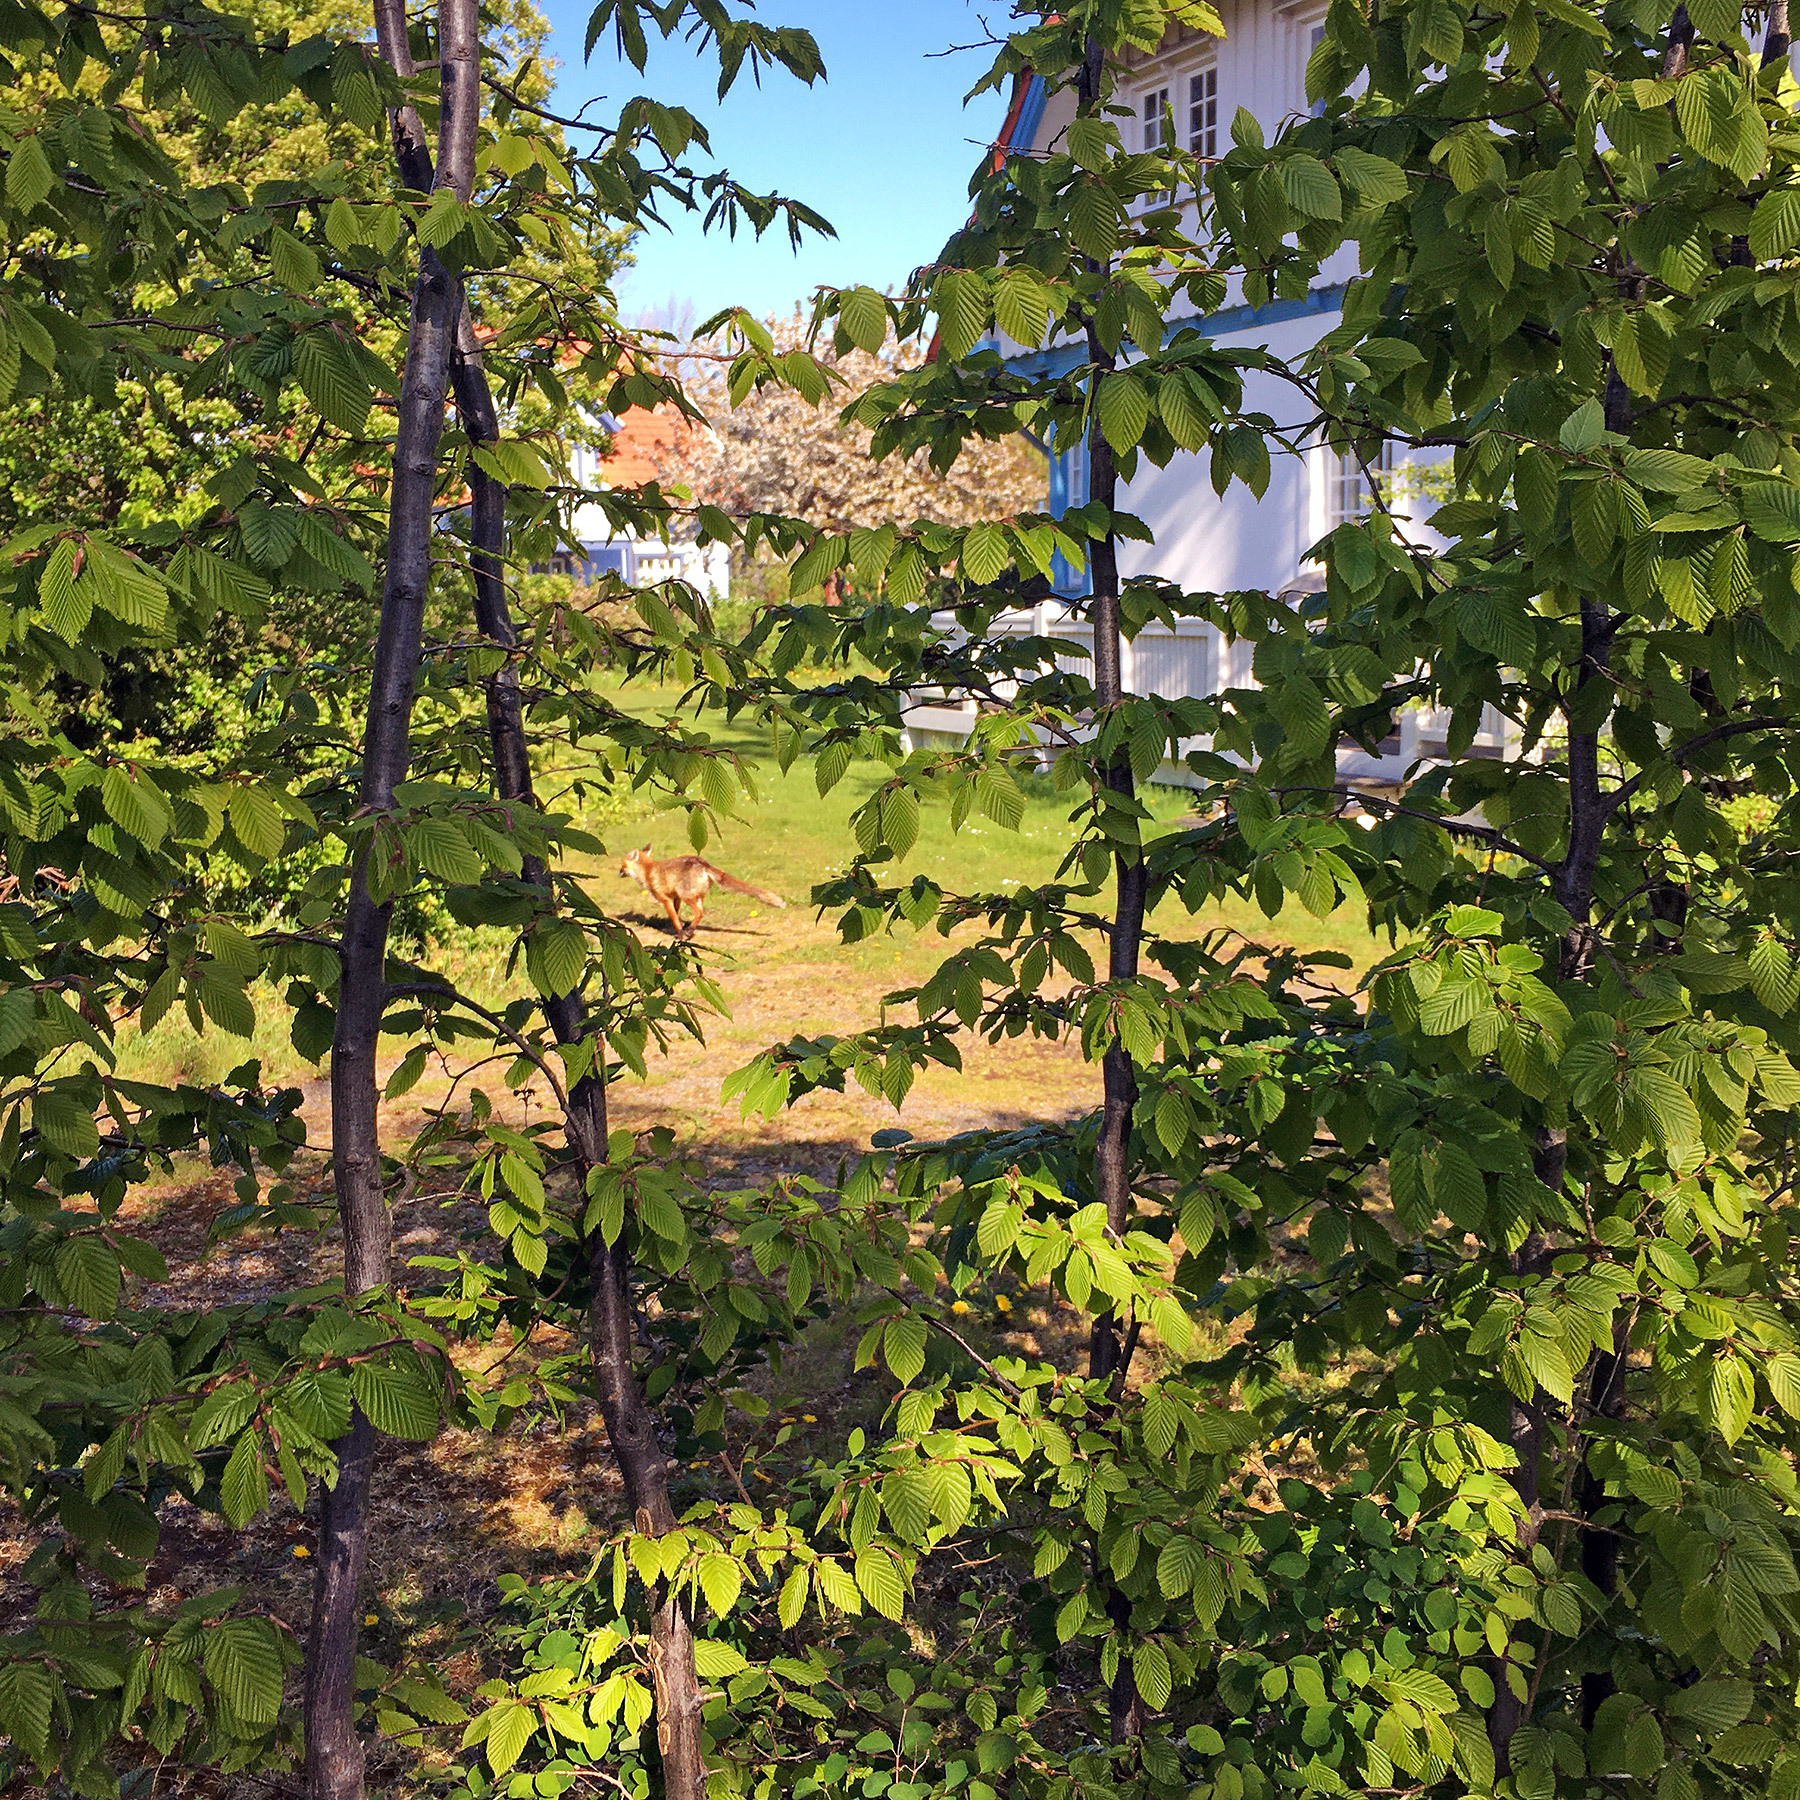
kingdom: Animalia
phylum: Chordata
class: Mammalia
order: Carnivora
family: Canidae
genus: Vulpes
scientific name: Vulpes vulpes
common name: Red fox
